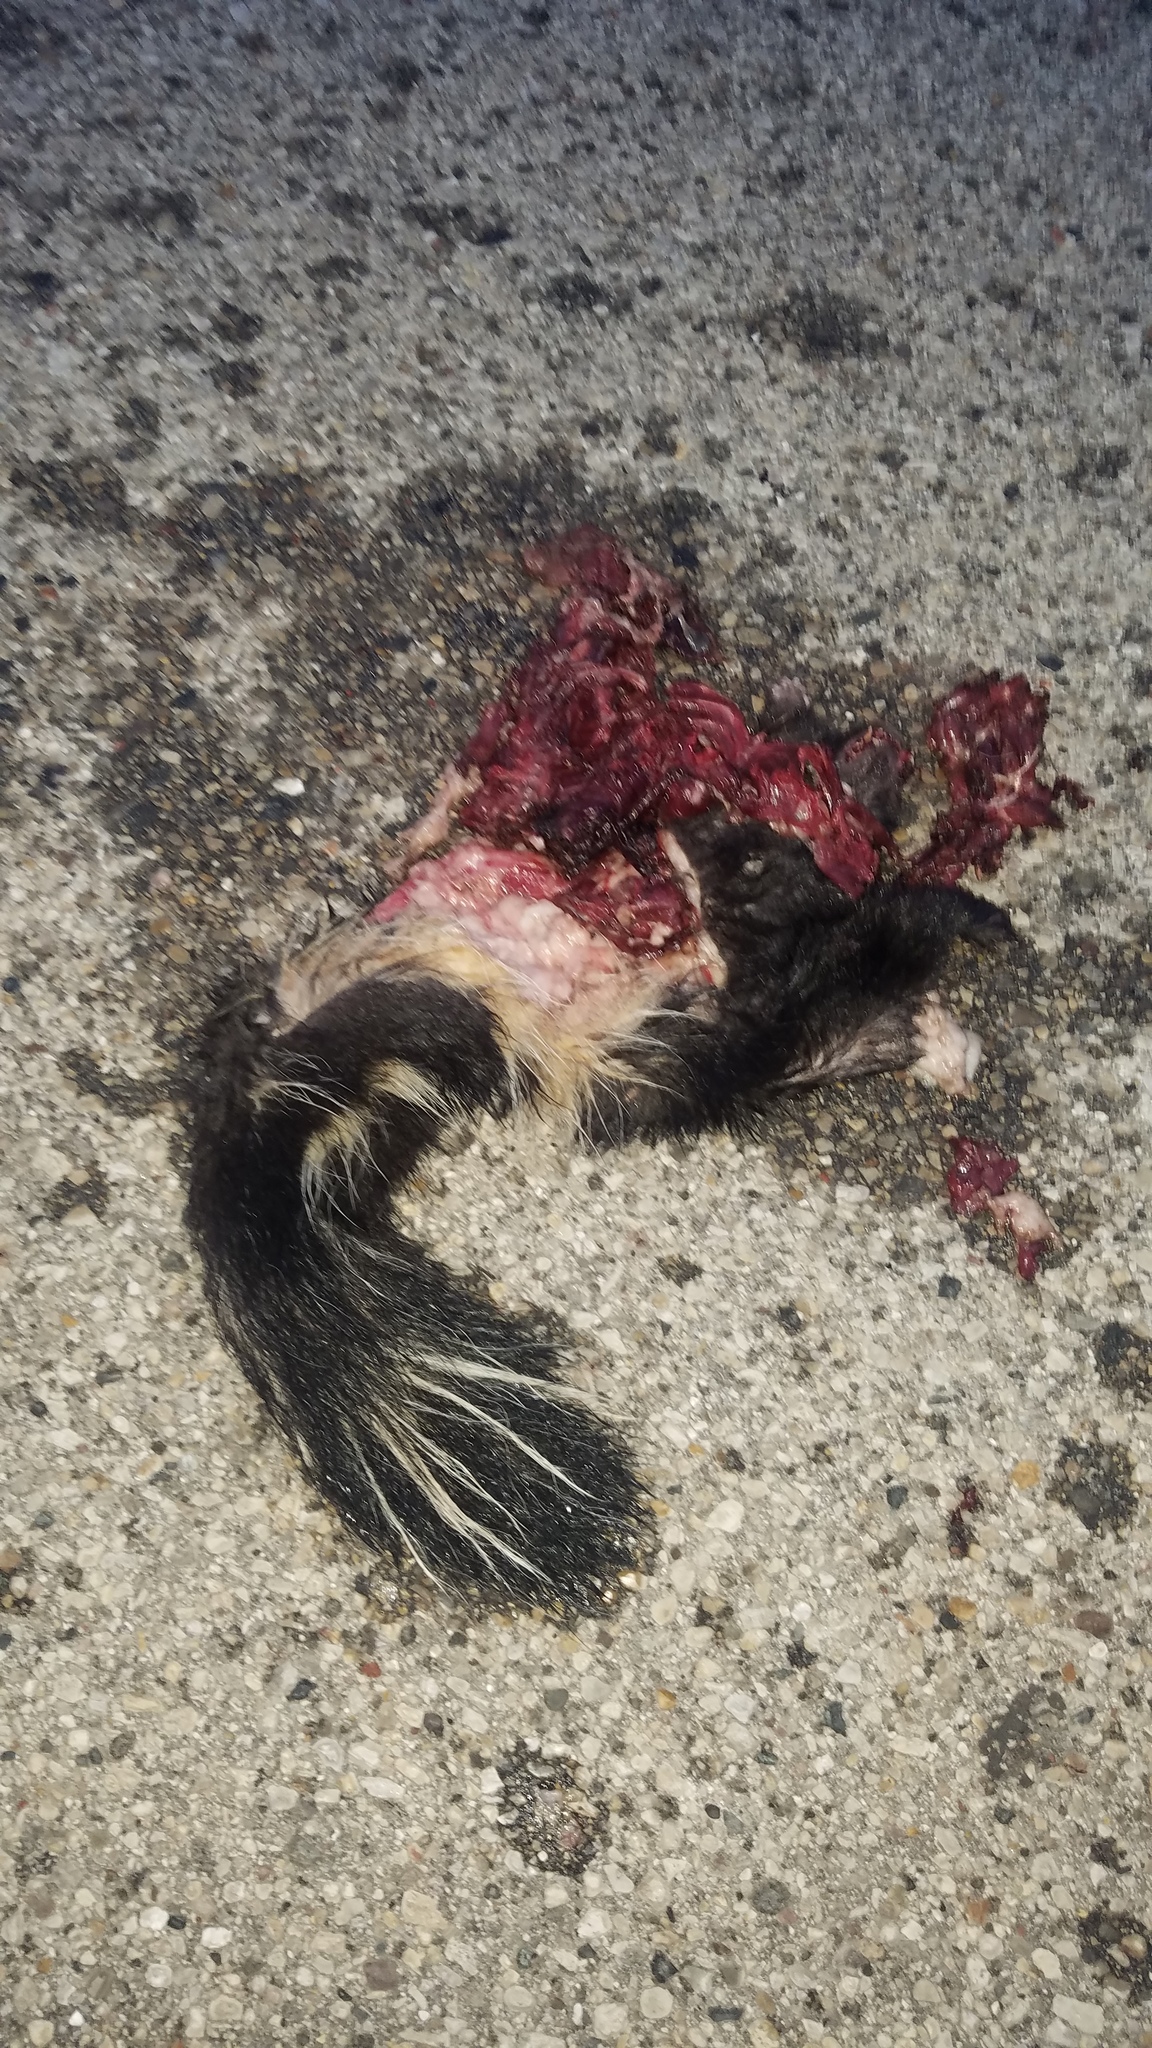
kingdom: Animalia
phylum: Chordata
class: Mammalia
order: Carnivora
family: Mephitidae
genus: Mephitis
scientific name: Mephitis mephitis
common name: Striped skunk
